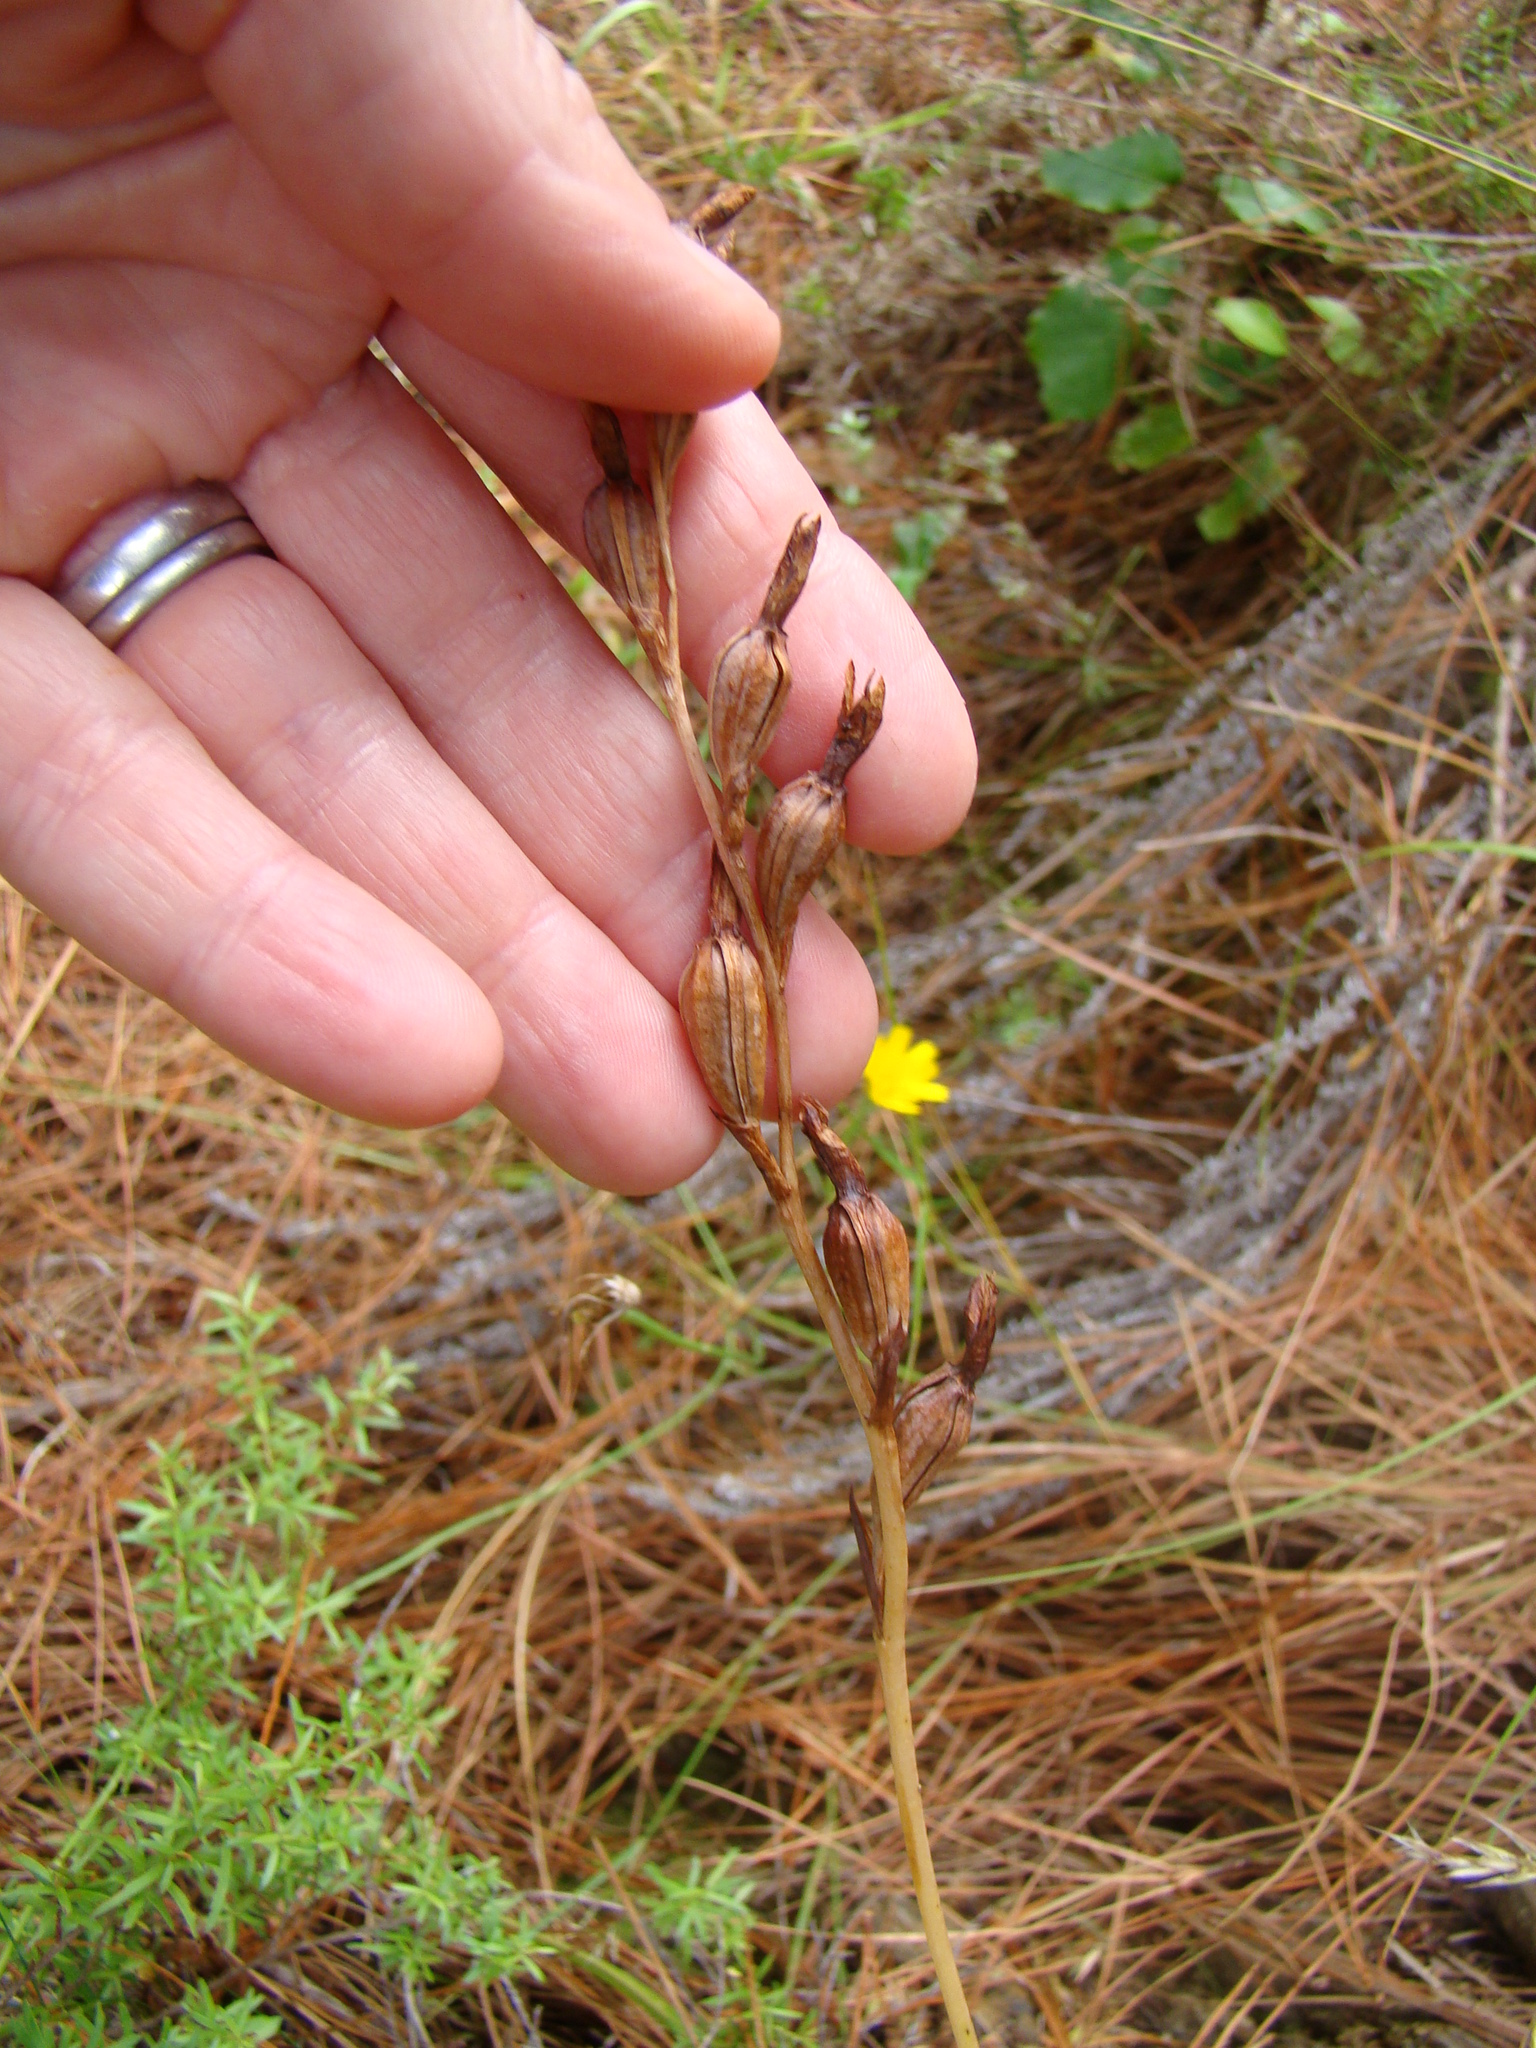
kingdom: Plantae
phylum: Tracheophyta
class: Liliopsida
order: Asparagales
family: Orchidaceae
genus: Thelymitra
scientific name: Thelymitra
